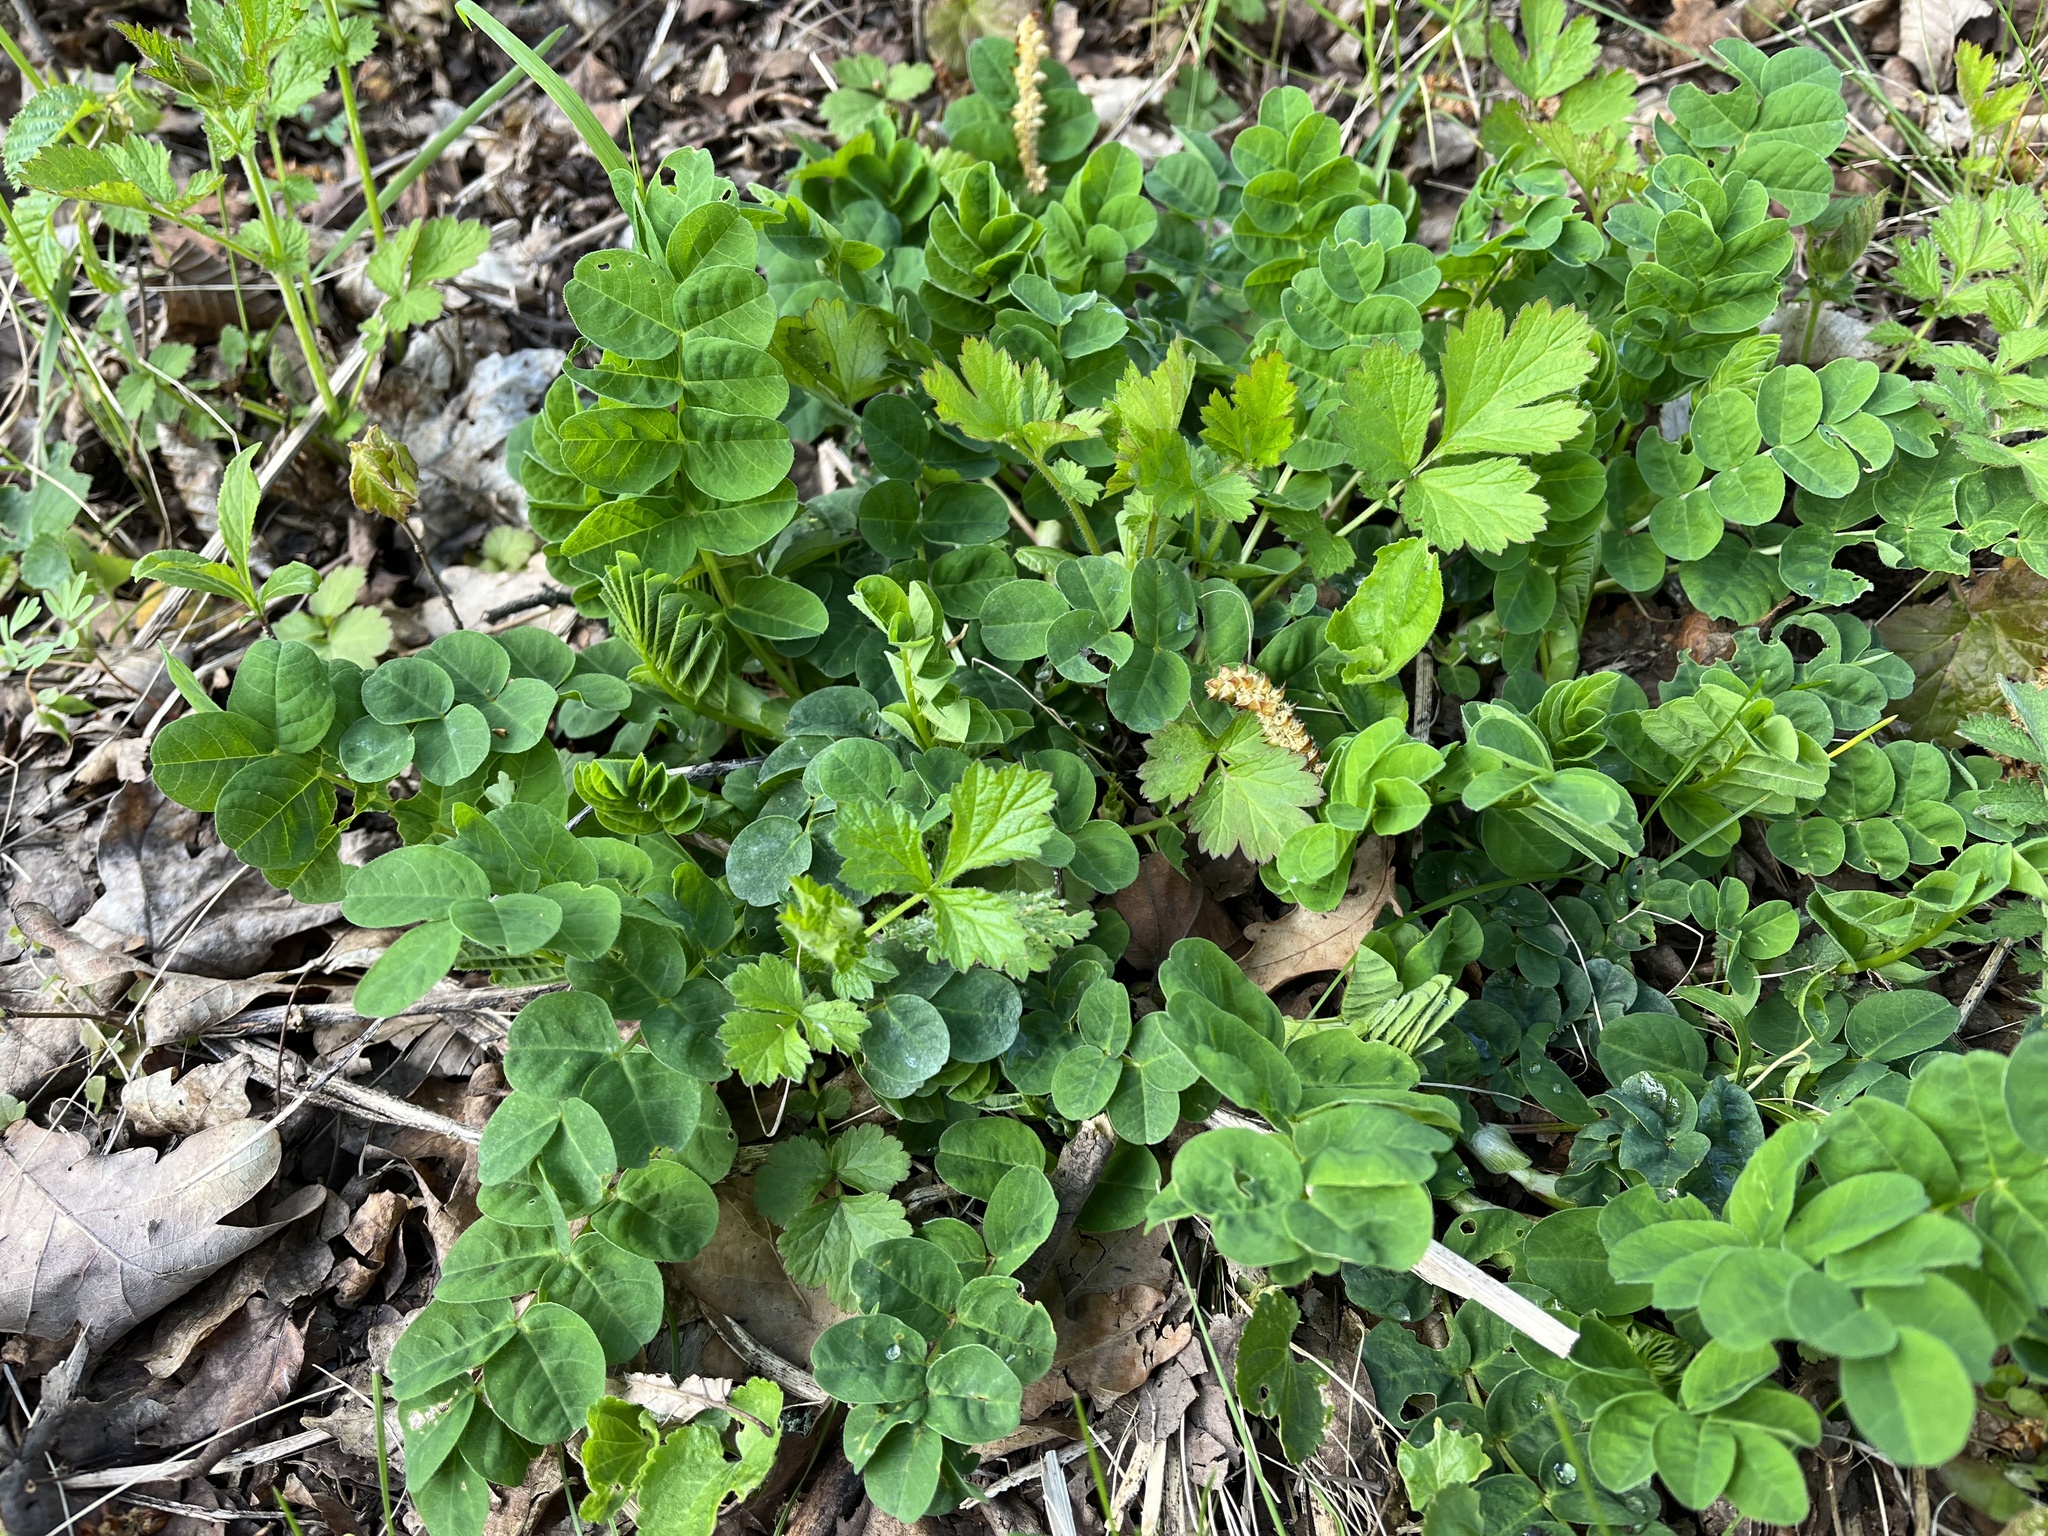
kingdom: Plantae
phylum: Tracheophyta
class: Magnoliopsida
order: Fabales
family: Fabaceae
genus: Astragalus
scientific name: Astragalus glycyphyllos
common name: Wild liquorice
